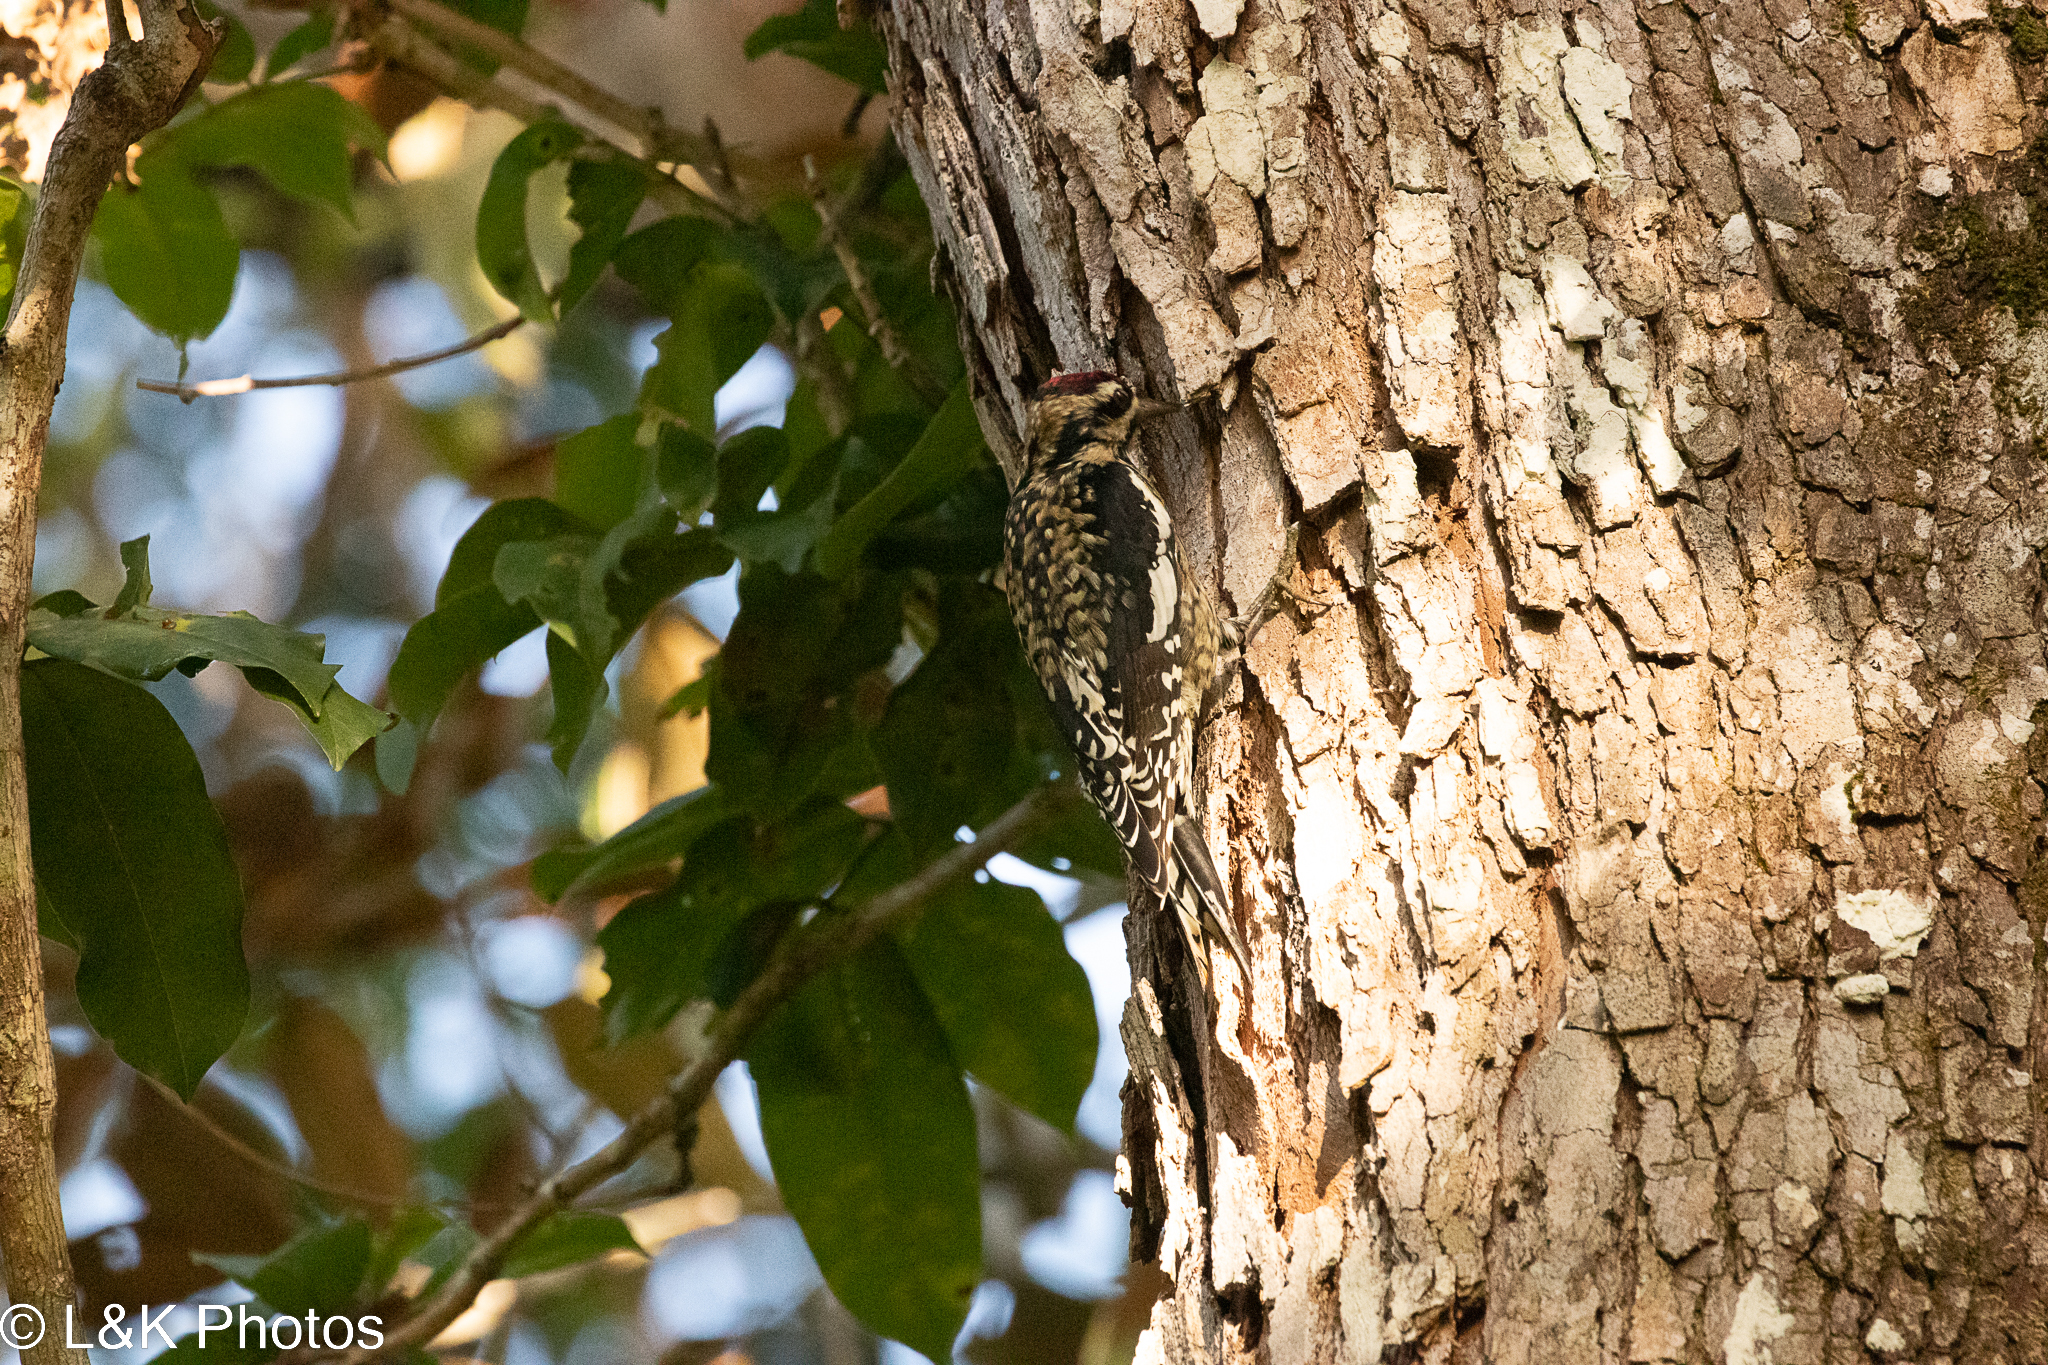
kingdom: Animalia
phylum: Chordata
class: Aves
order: Piciformes
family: Picidae
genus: Sphyrapicus
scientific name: Sphyrapicus varius
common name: Yellow-bellied sapsucker
